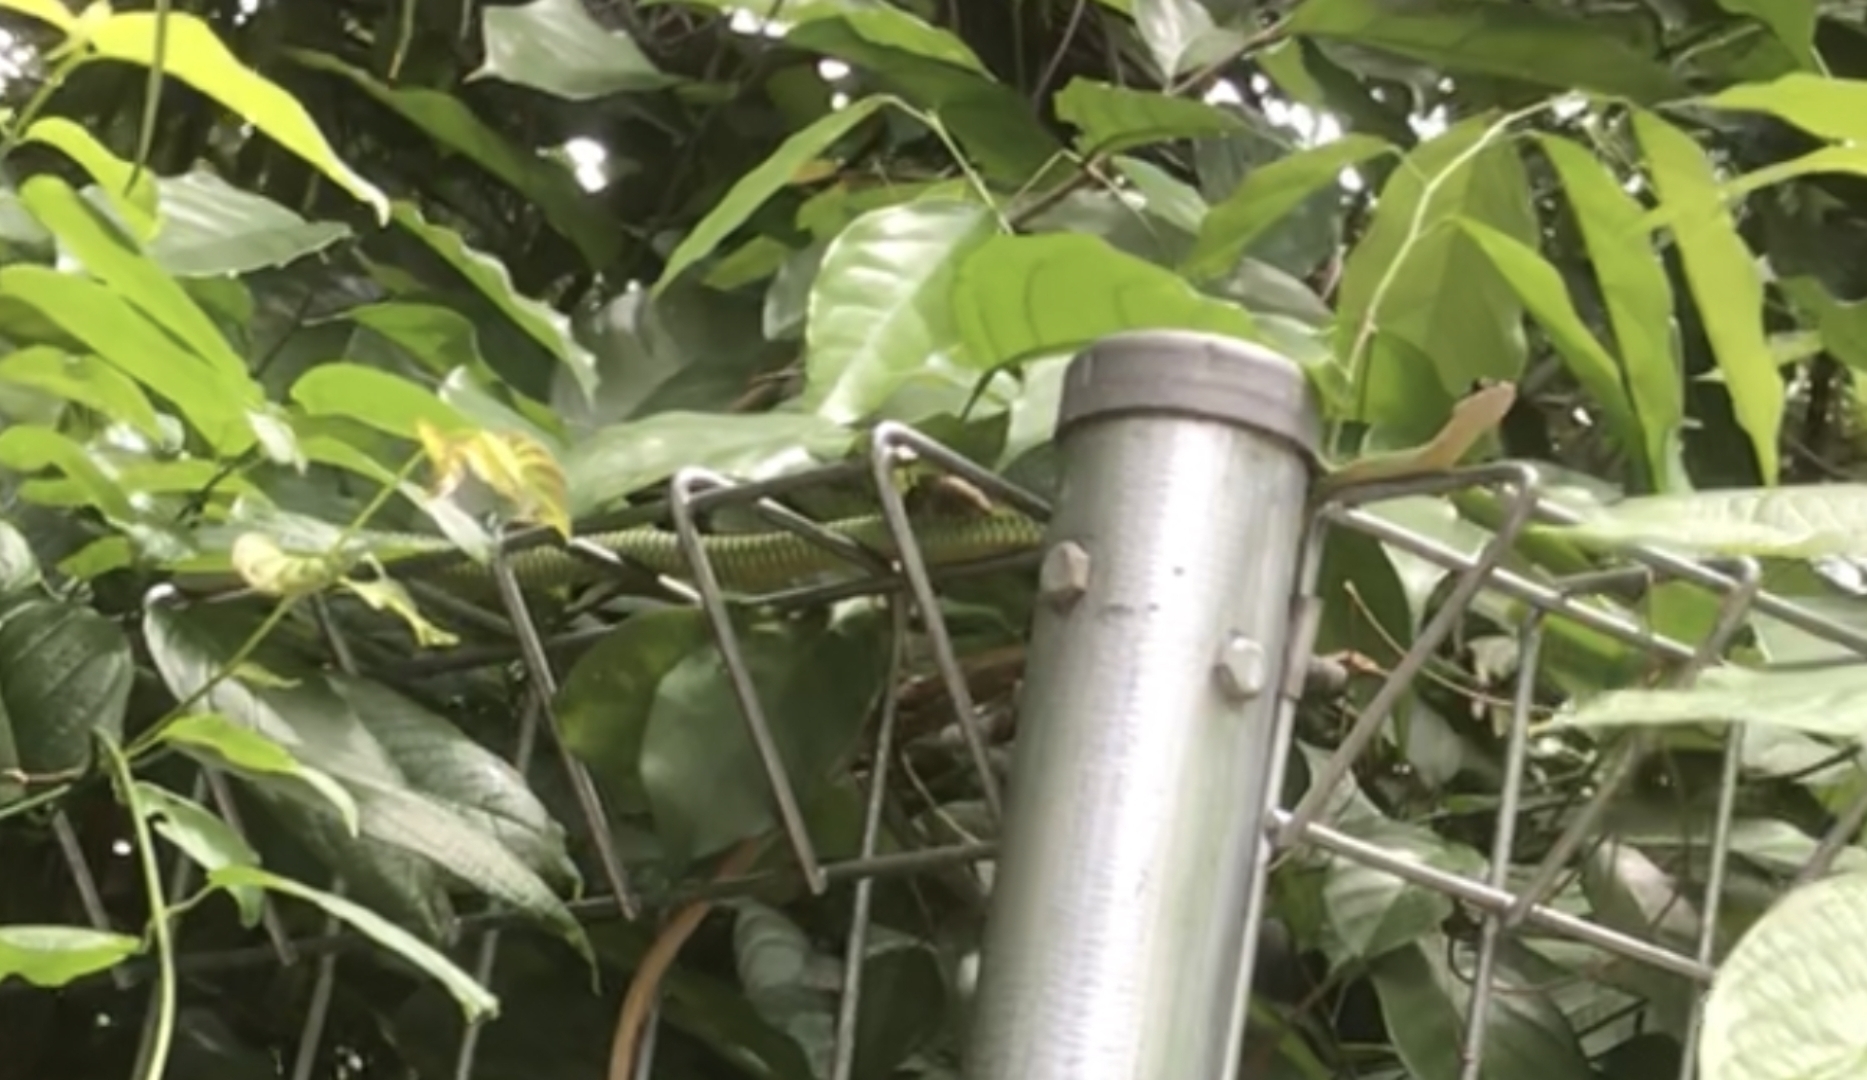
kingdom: Animalia
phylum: Chordata
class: Squamata
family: Colubridae
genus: Chrysopelea
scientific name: Chrysopelea paradisi
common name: Paradise tree snake
